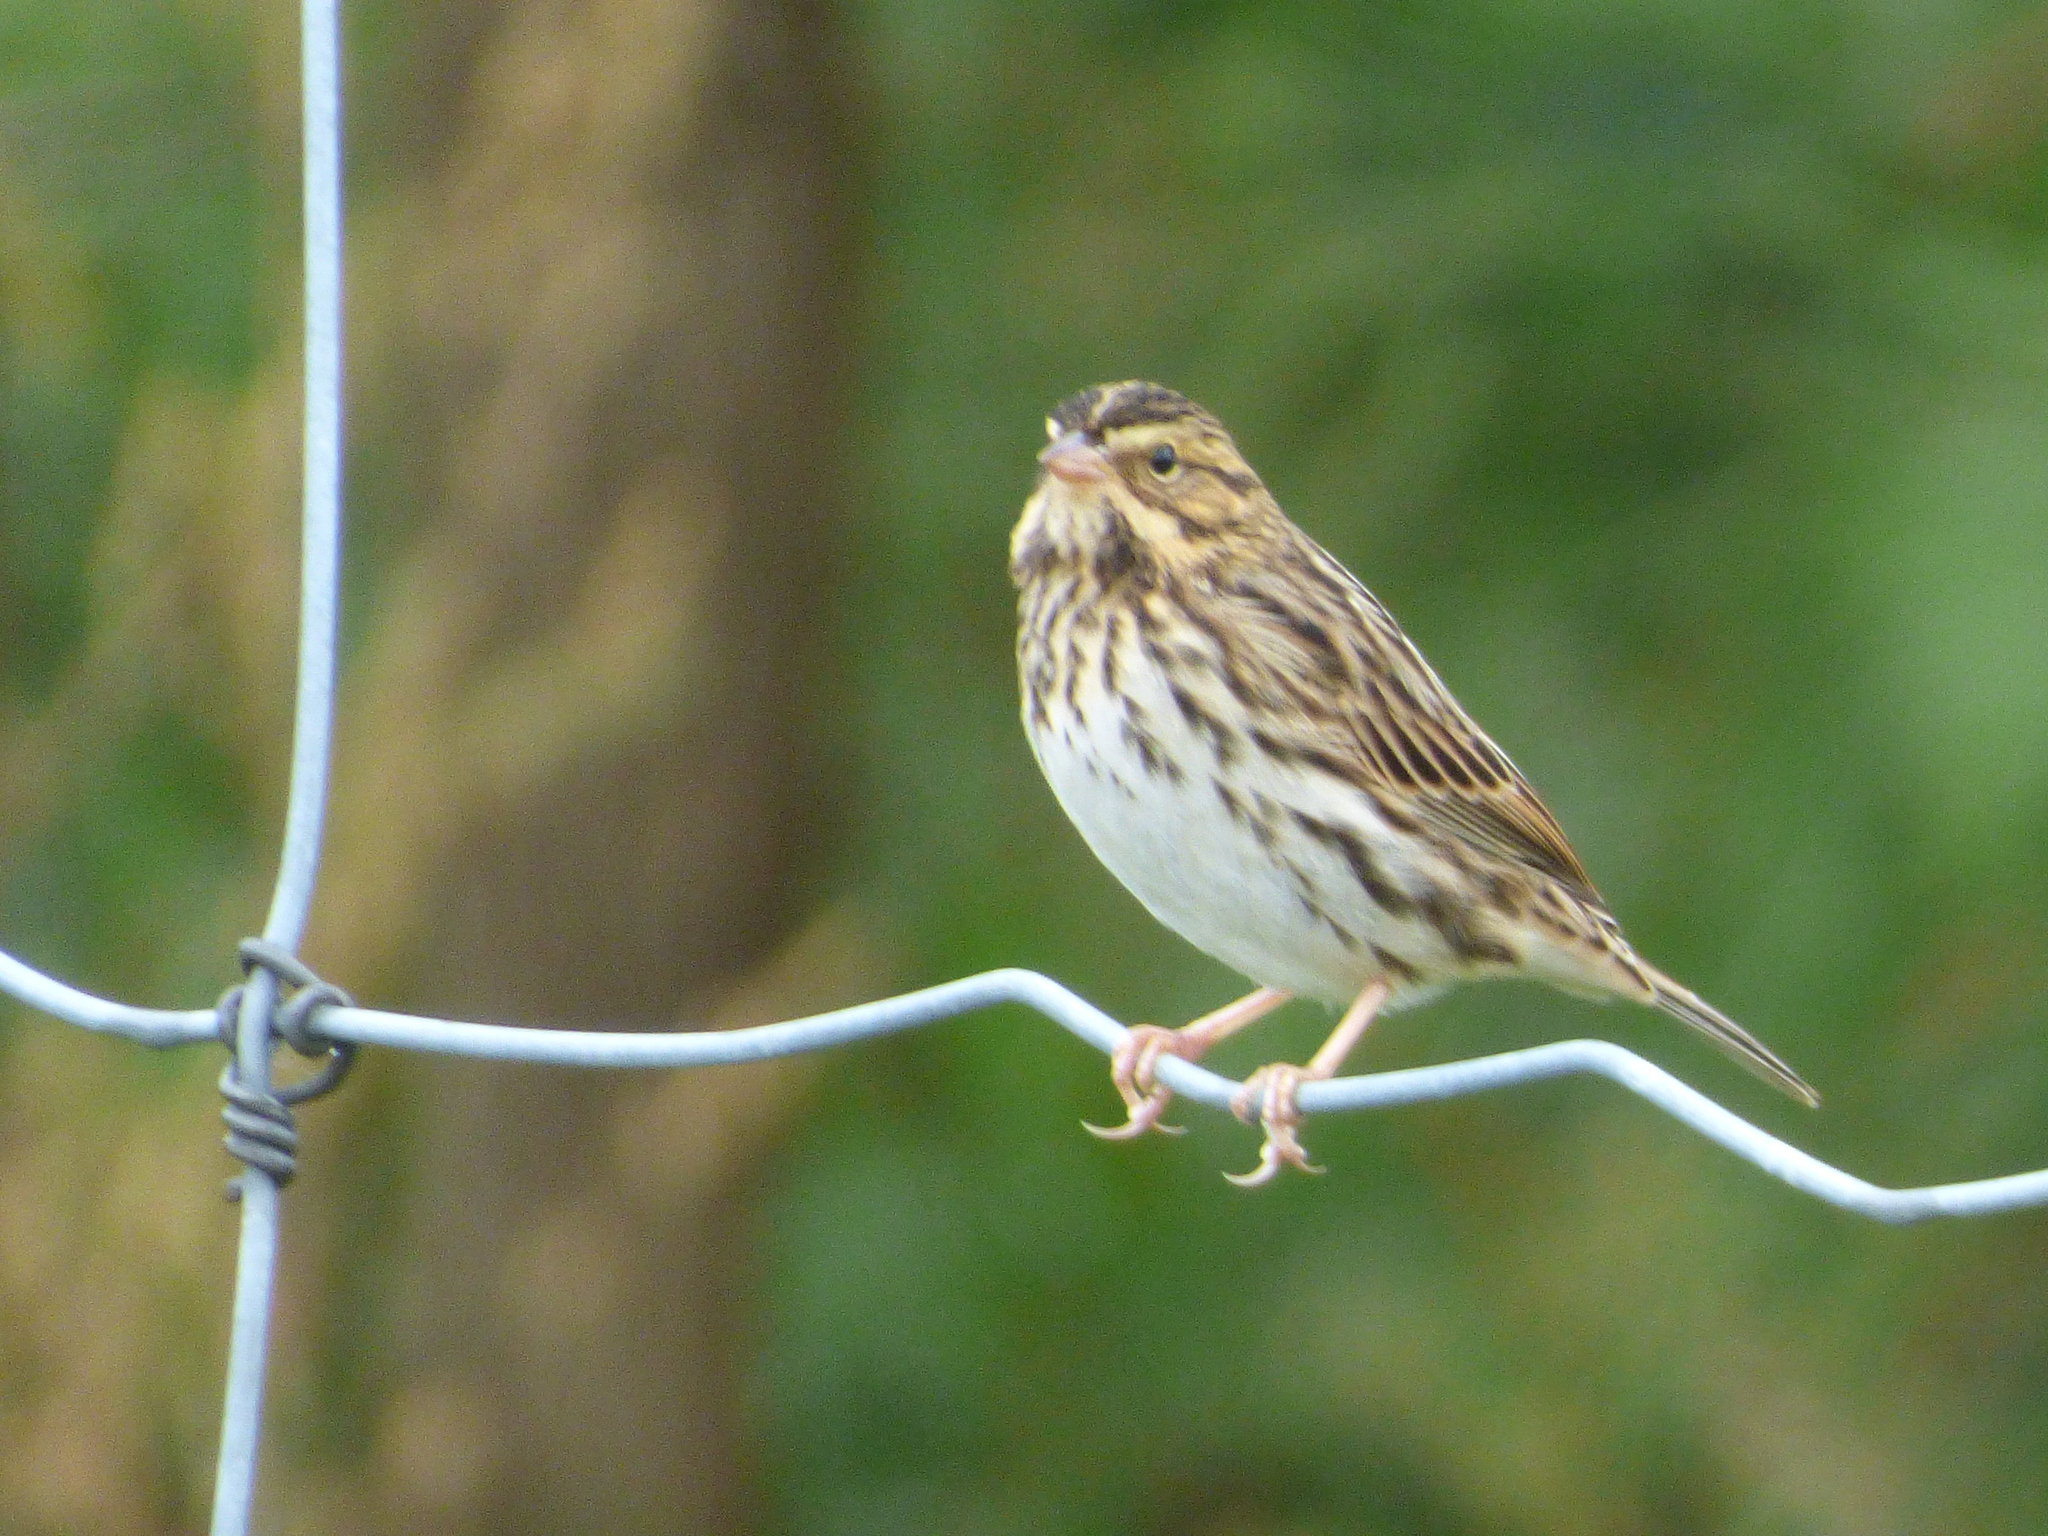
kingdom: Animalia
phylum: Chordata
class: Aves
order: Passeriformes
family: Passerellidae
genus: Passerculus
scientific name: Passerculus sandwichensis
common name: Savannah sparrow
